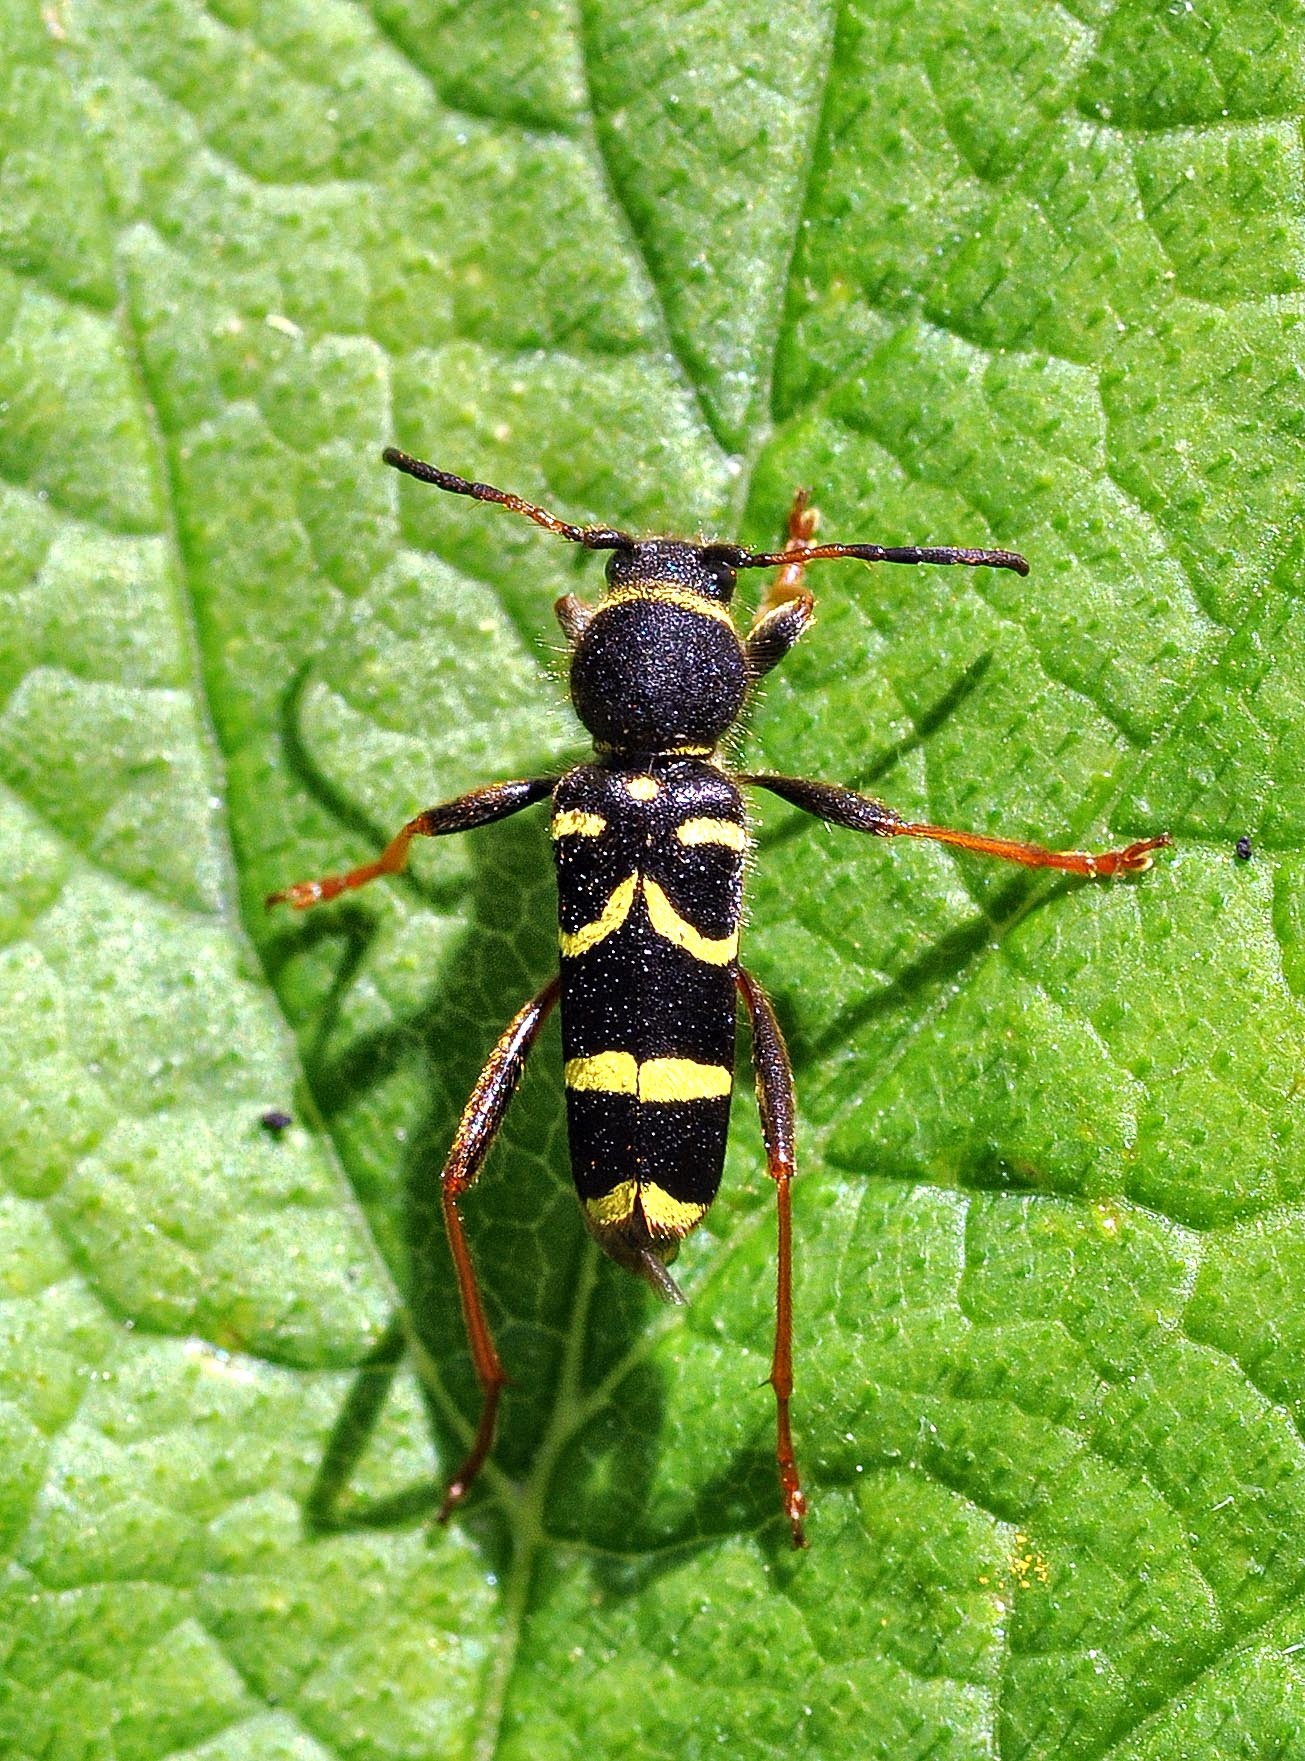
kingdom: Animalia
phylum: Arthropoda
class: Insecta
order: Coleoptera
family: Cerambycidae
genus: Clytus
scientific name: Clytus arietis
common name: Wasp beetle
